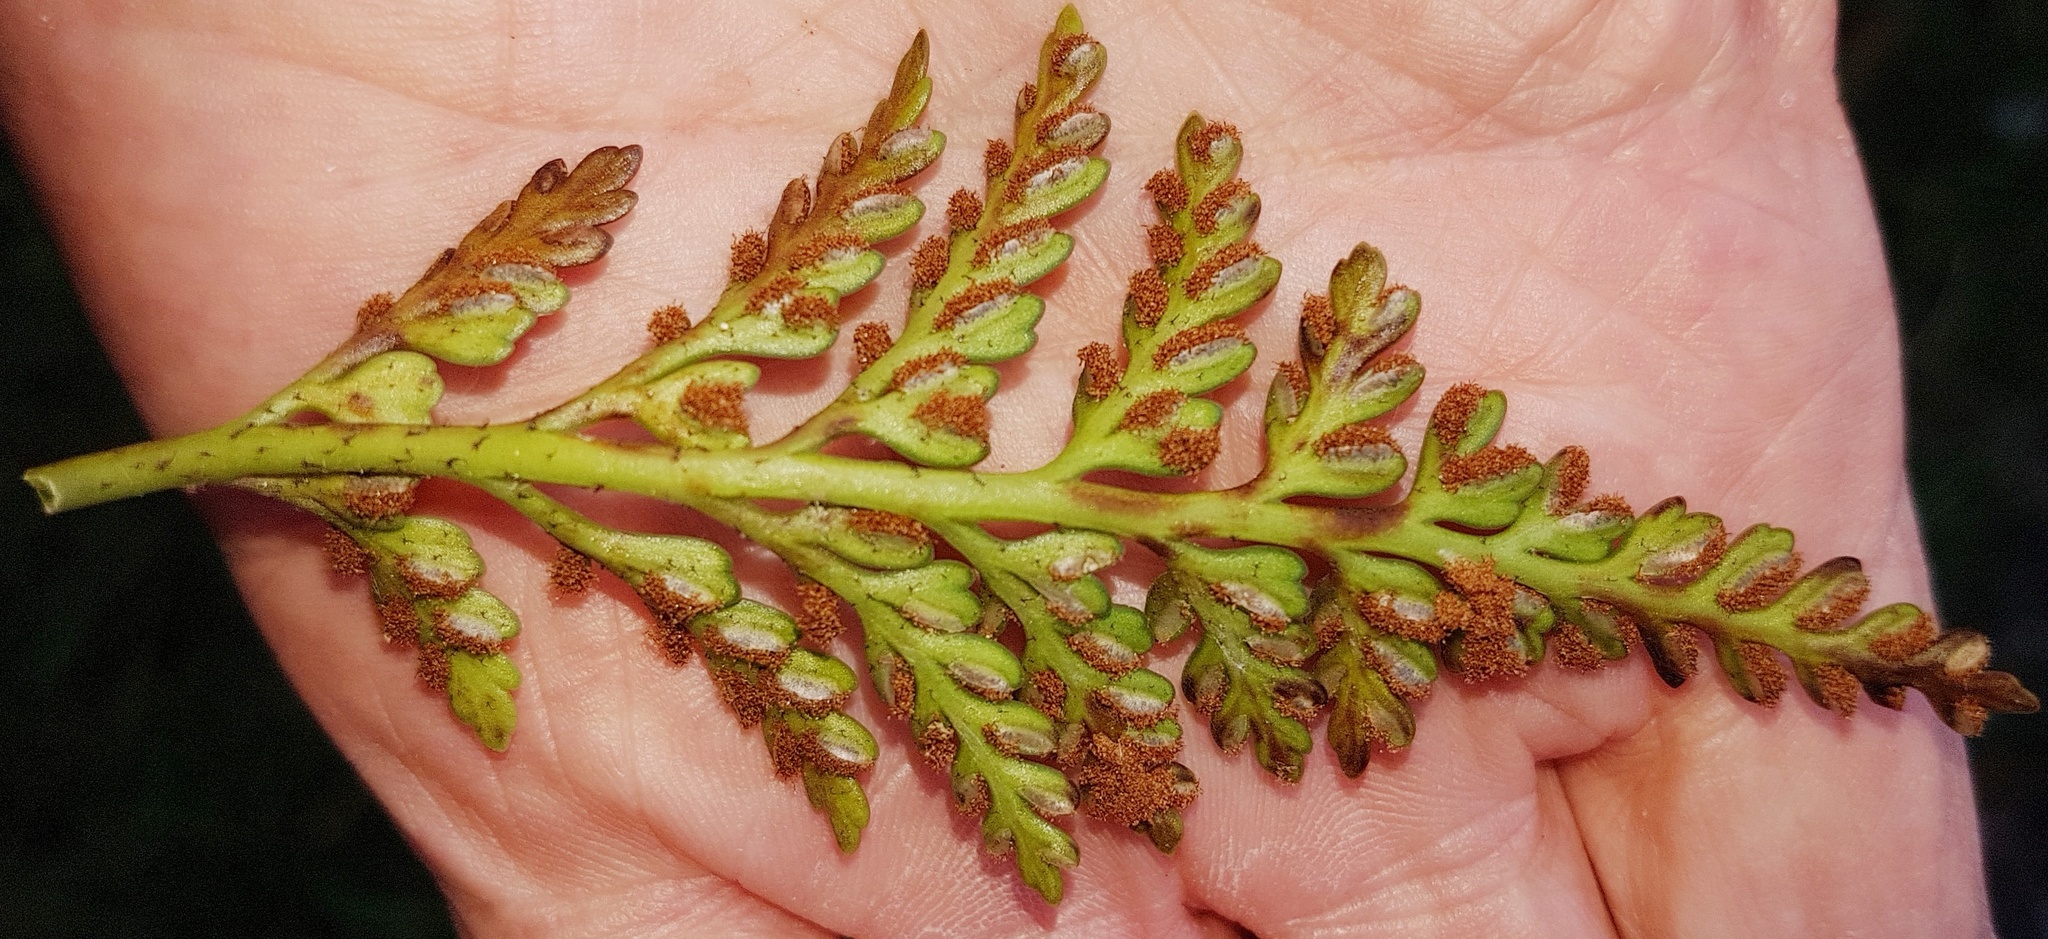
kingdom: Plantae
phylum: Tracheophyta
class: Polypodiopsida
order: Polypodiales
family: Aspleniaceae
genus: Asplenium
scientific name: Asplenium appendiculatum
